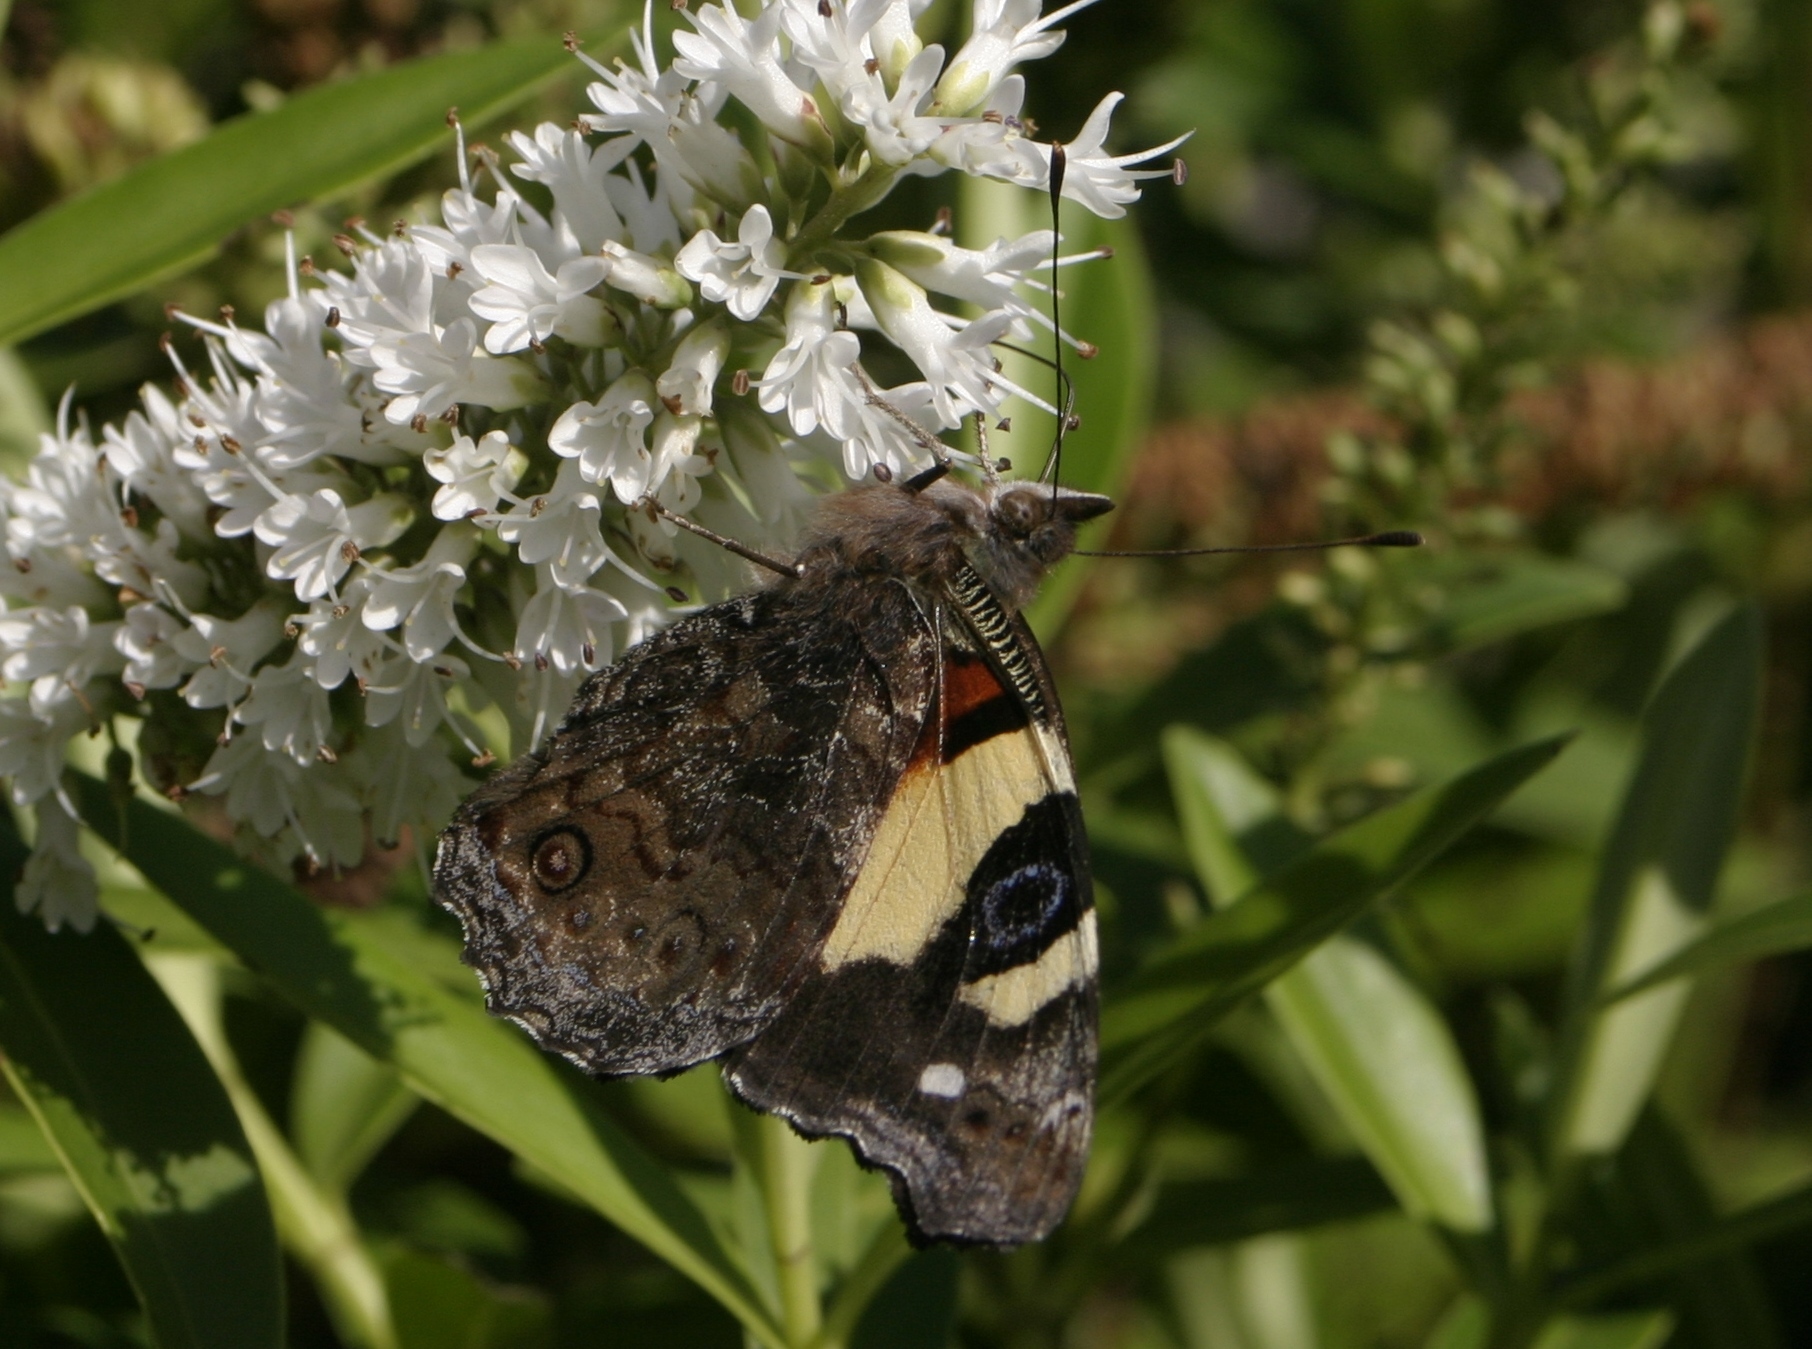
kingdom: Animalia
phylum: Arthropoda
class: Insecta
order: Lepidoptera
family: Nymphalidae
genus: Vanessa
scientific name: Vanessa itea
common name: Yellow admiral
